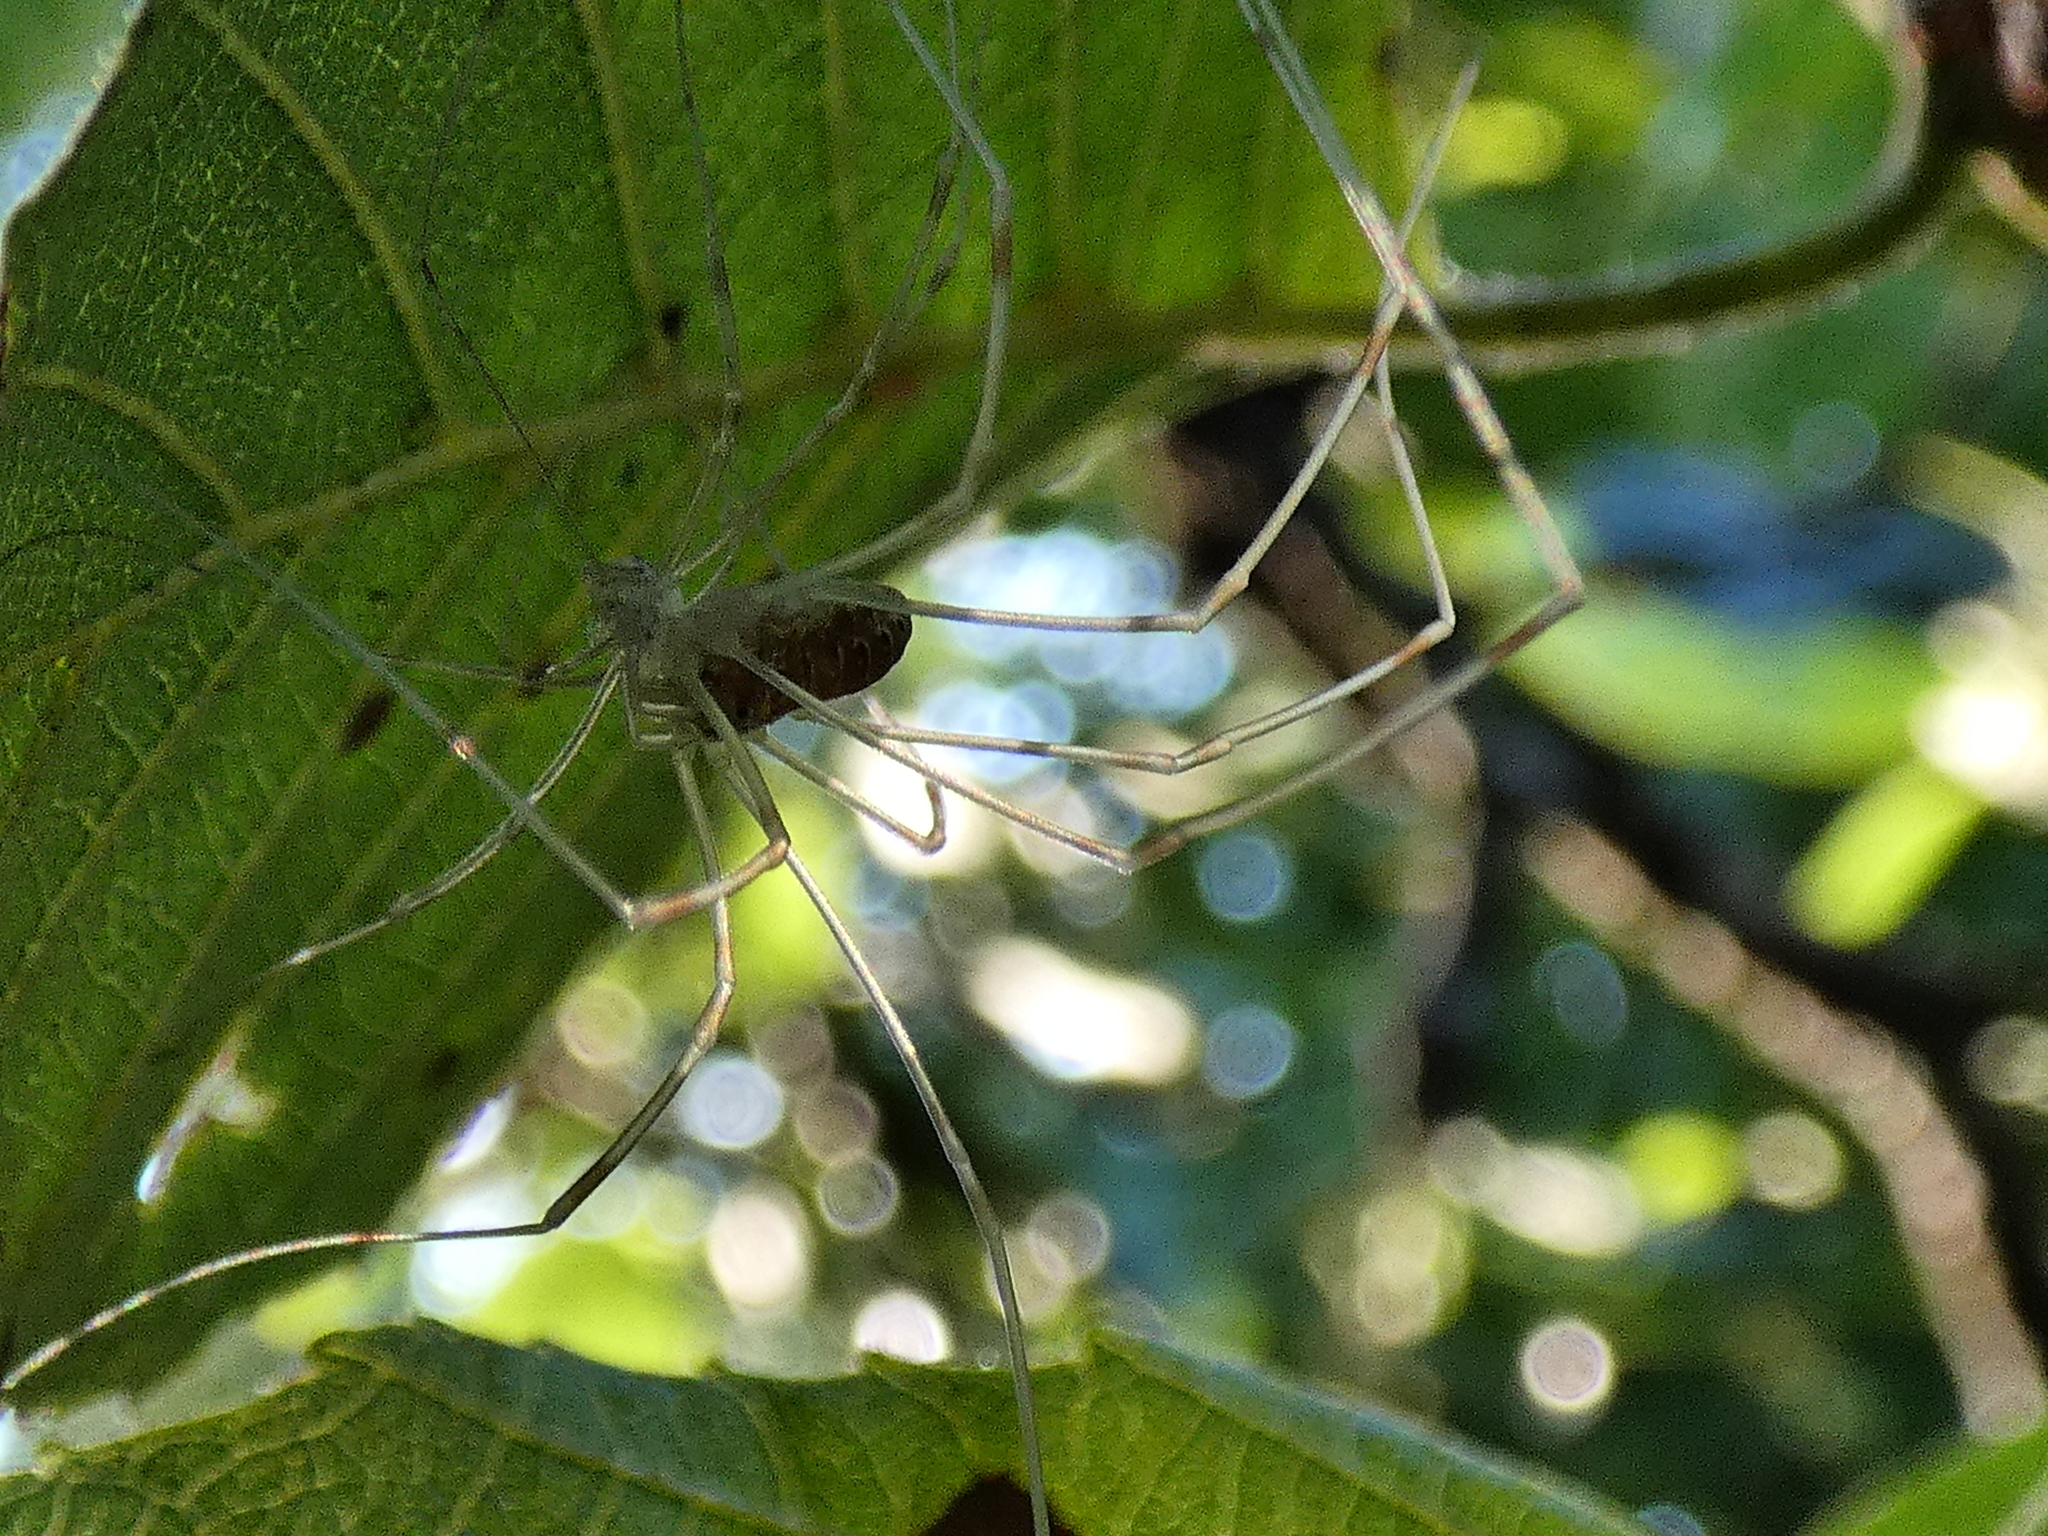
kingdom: Animalia
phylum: Arthropoda
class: Arachnida
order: Opiliones
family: Phalangiidae
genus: Opilio
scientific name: Opilio canestrinii
